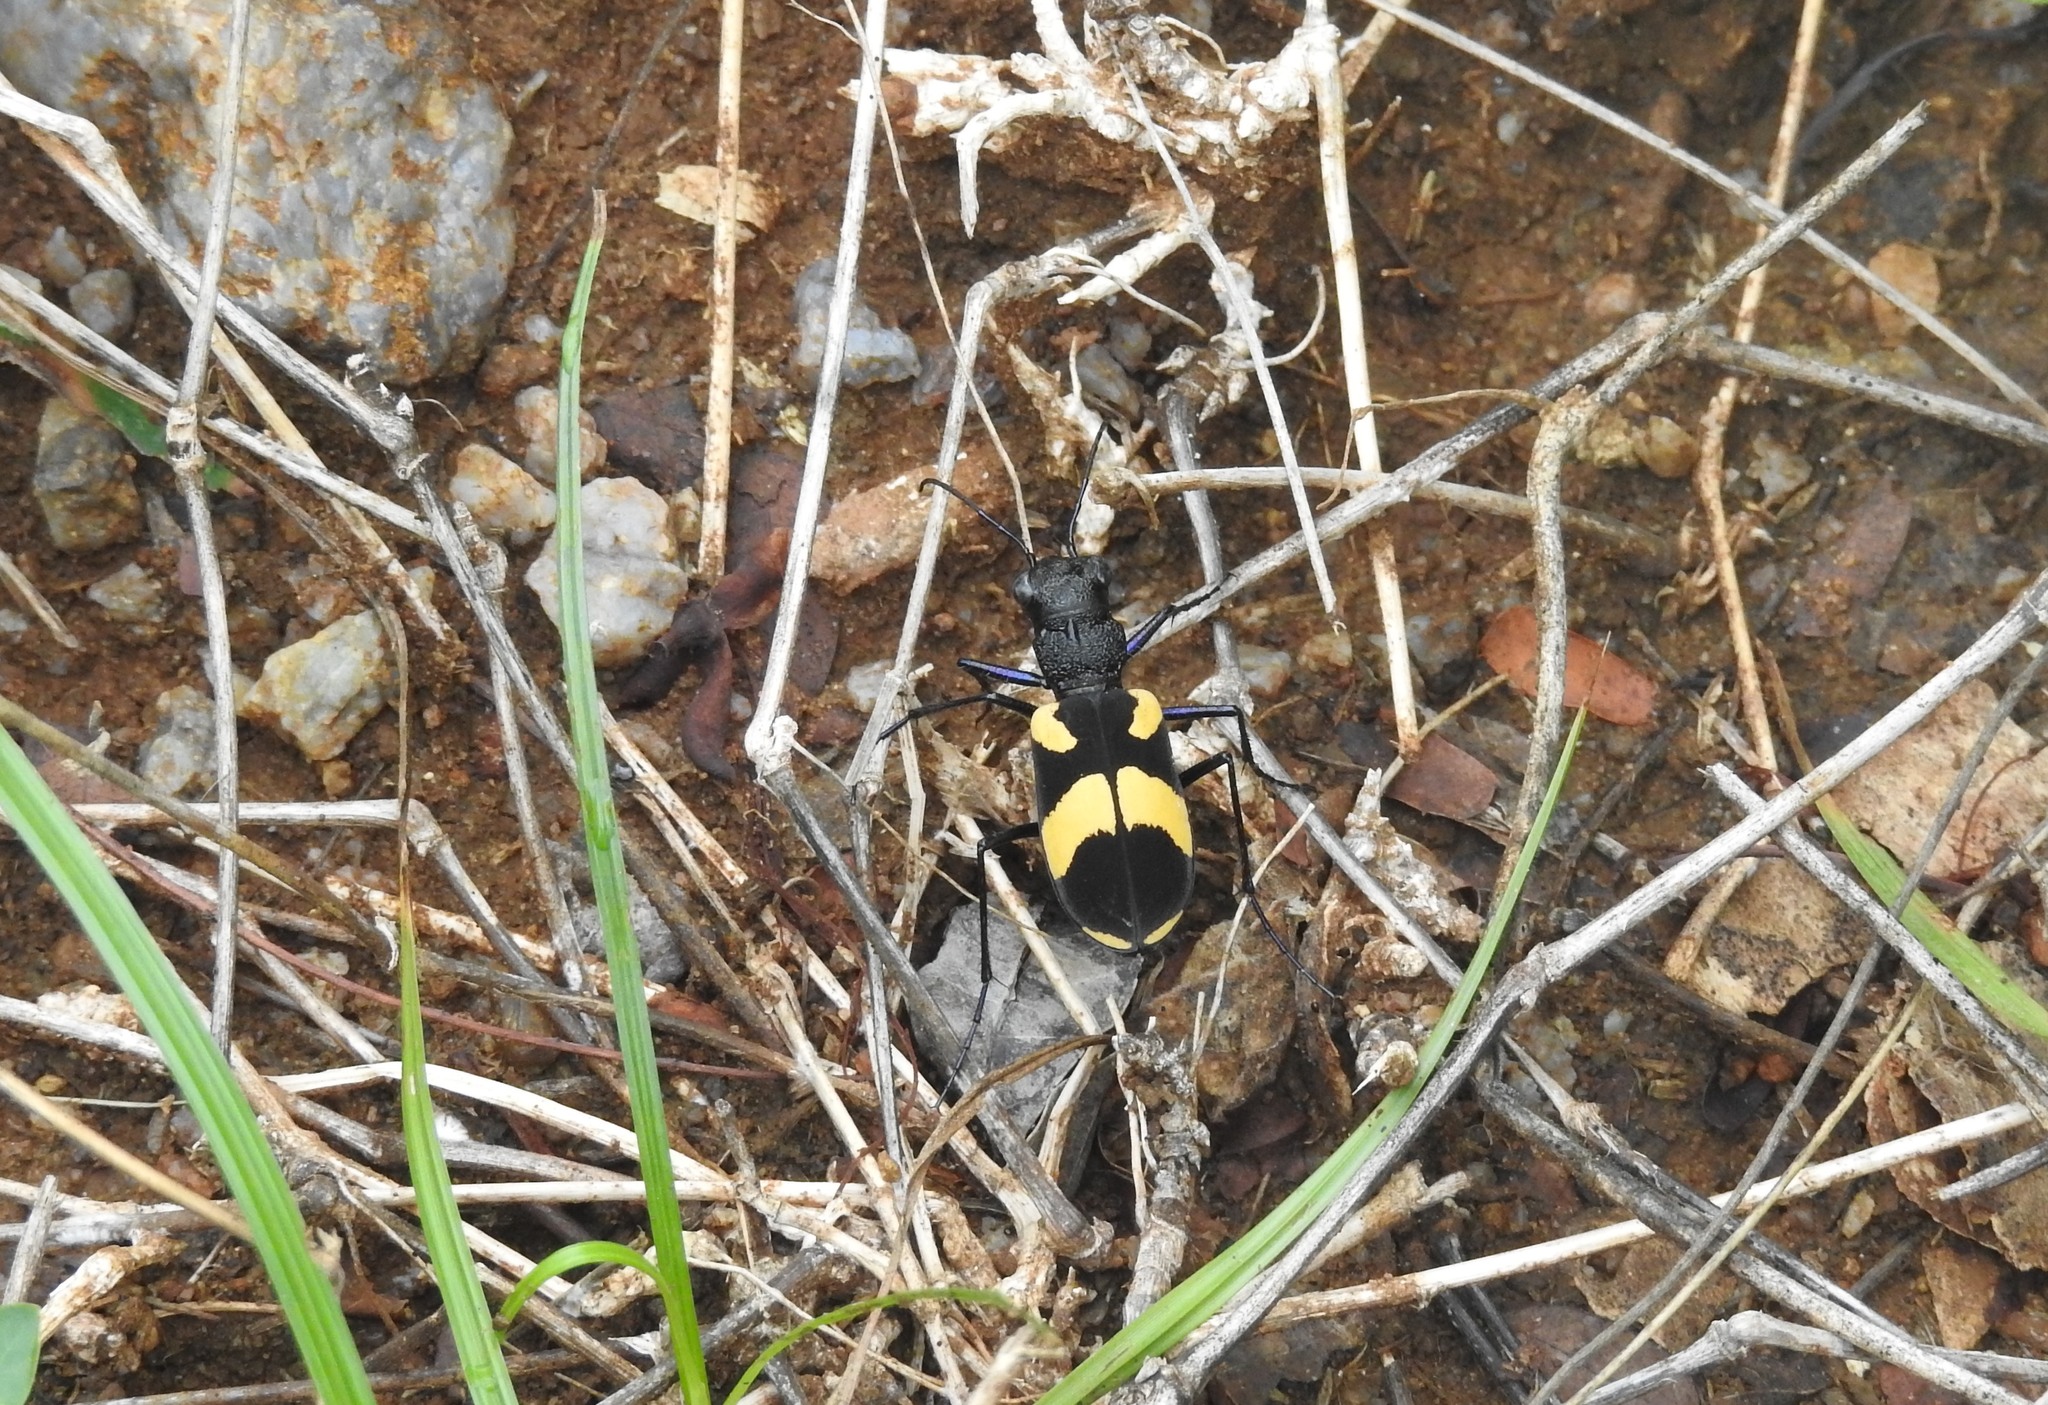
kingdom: Animalia
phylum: Arthropoda
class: Insecta
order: Coleoptera
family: Carabidae
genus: Cicindela
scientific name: Cicindela princeps
